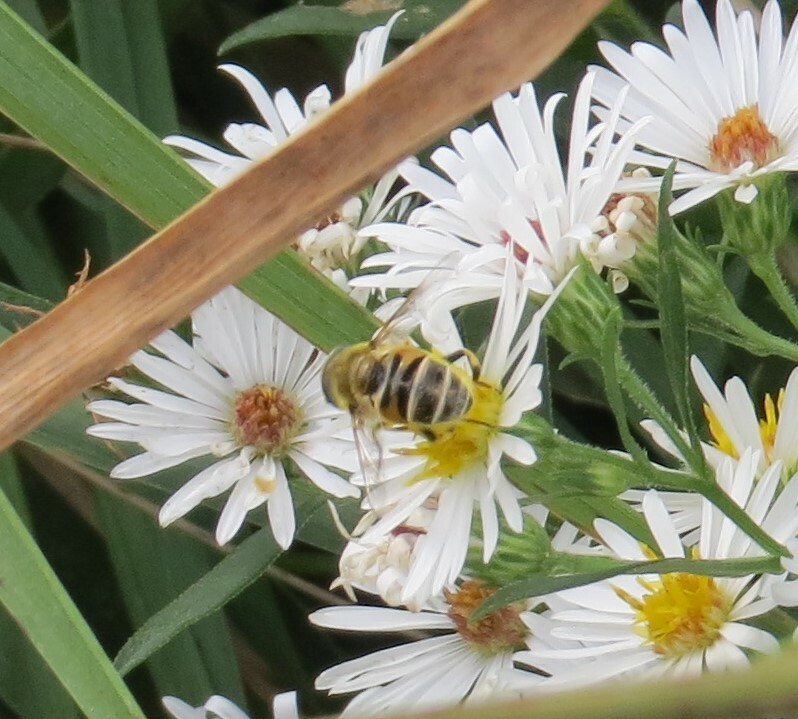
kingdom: Animalia
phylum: Arthropoda
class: Insecta
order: Diptera
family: Syrphidae
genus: Eristalis
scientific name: Eristalis stipator
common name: Yellow-shouldered drone fly
